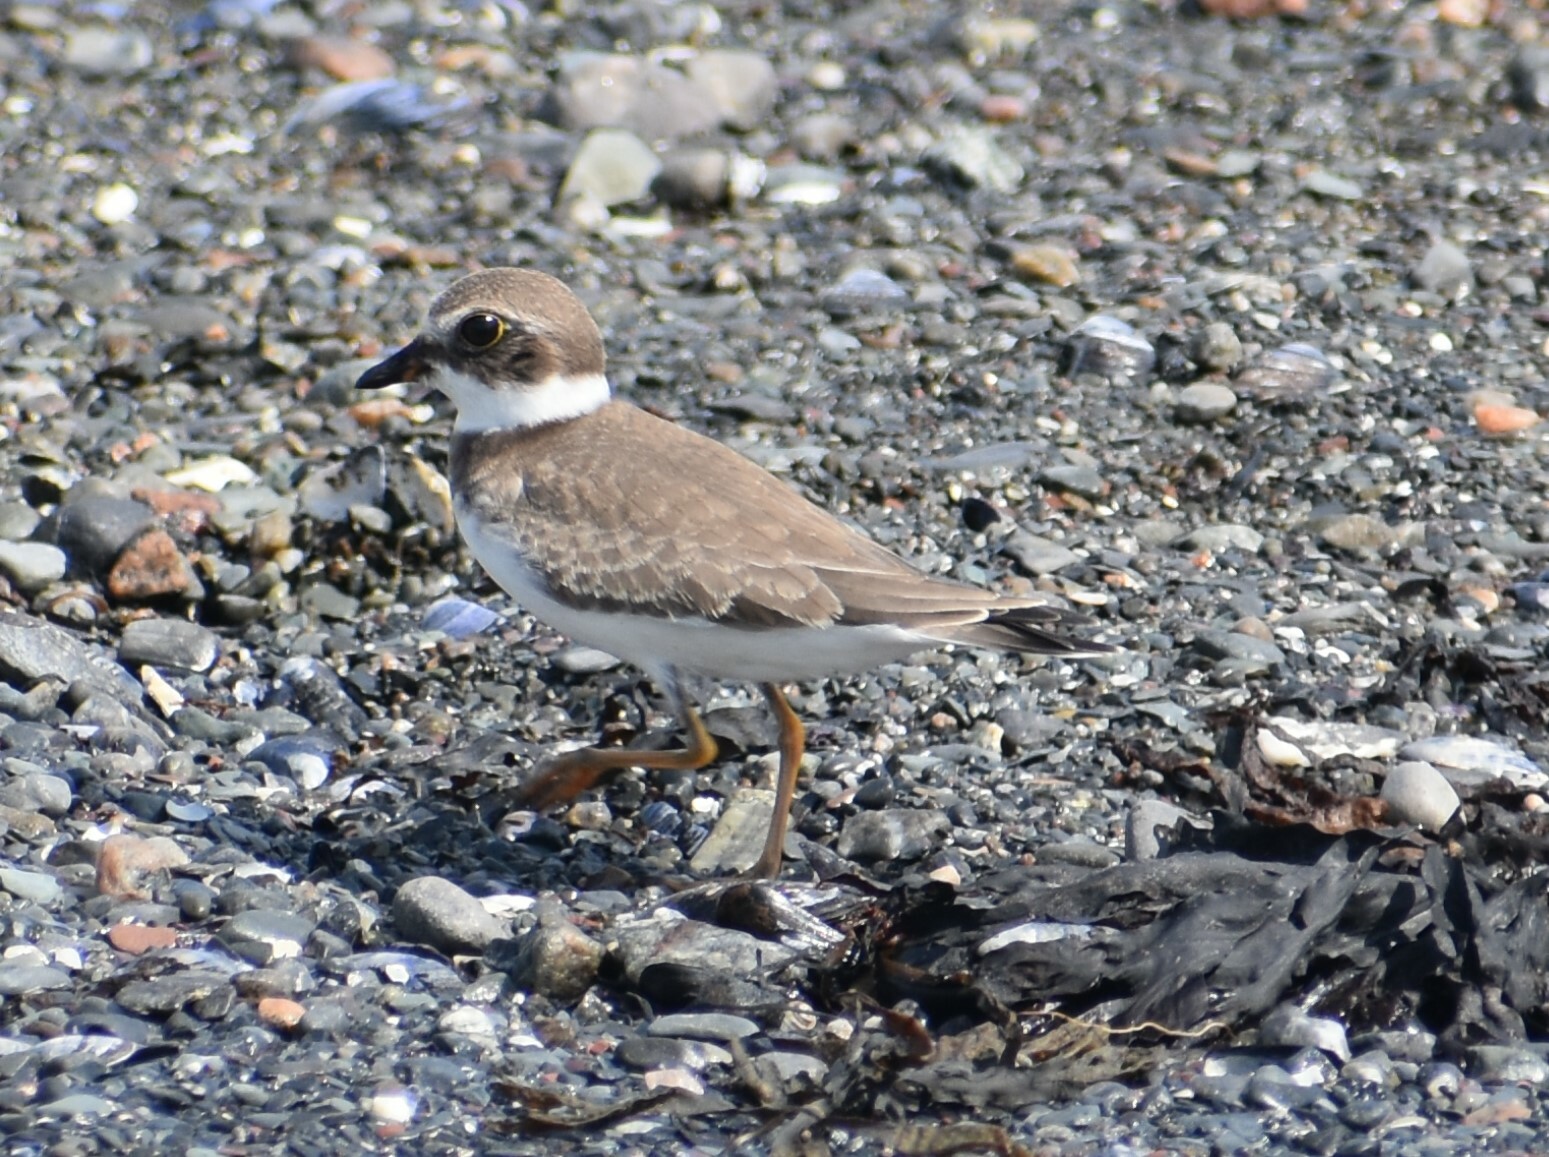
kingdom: Animalia
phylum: Chordata
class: Aves
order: Charadriiformes
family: Charadriidae
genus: Charadrius
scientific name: Charadrius semipalmatus
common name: Semipalmated plover
